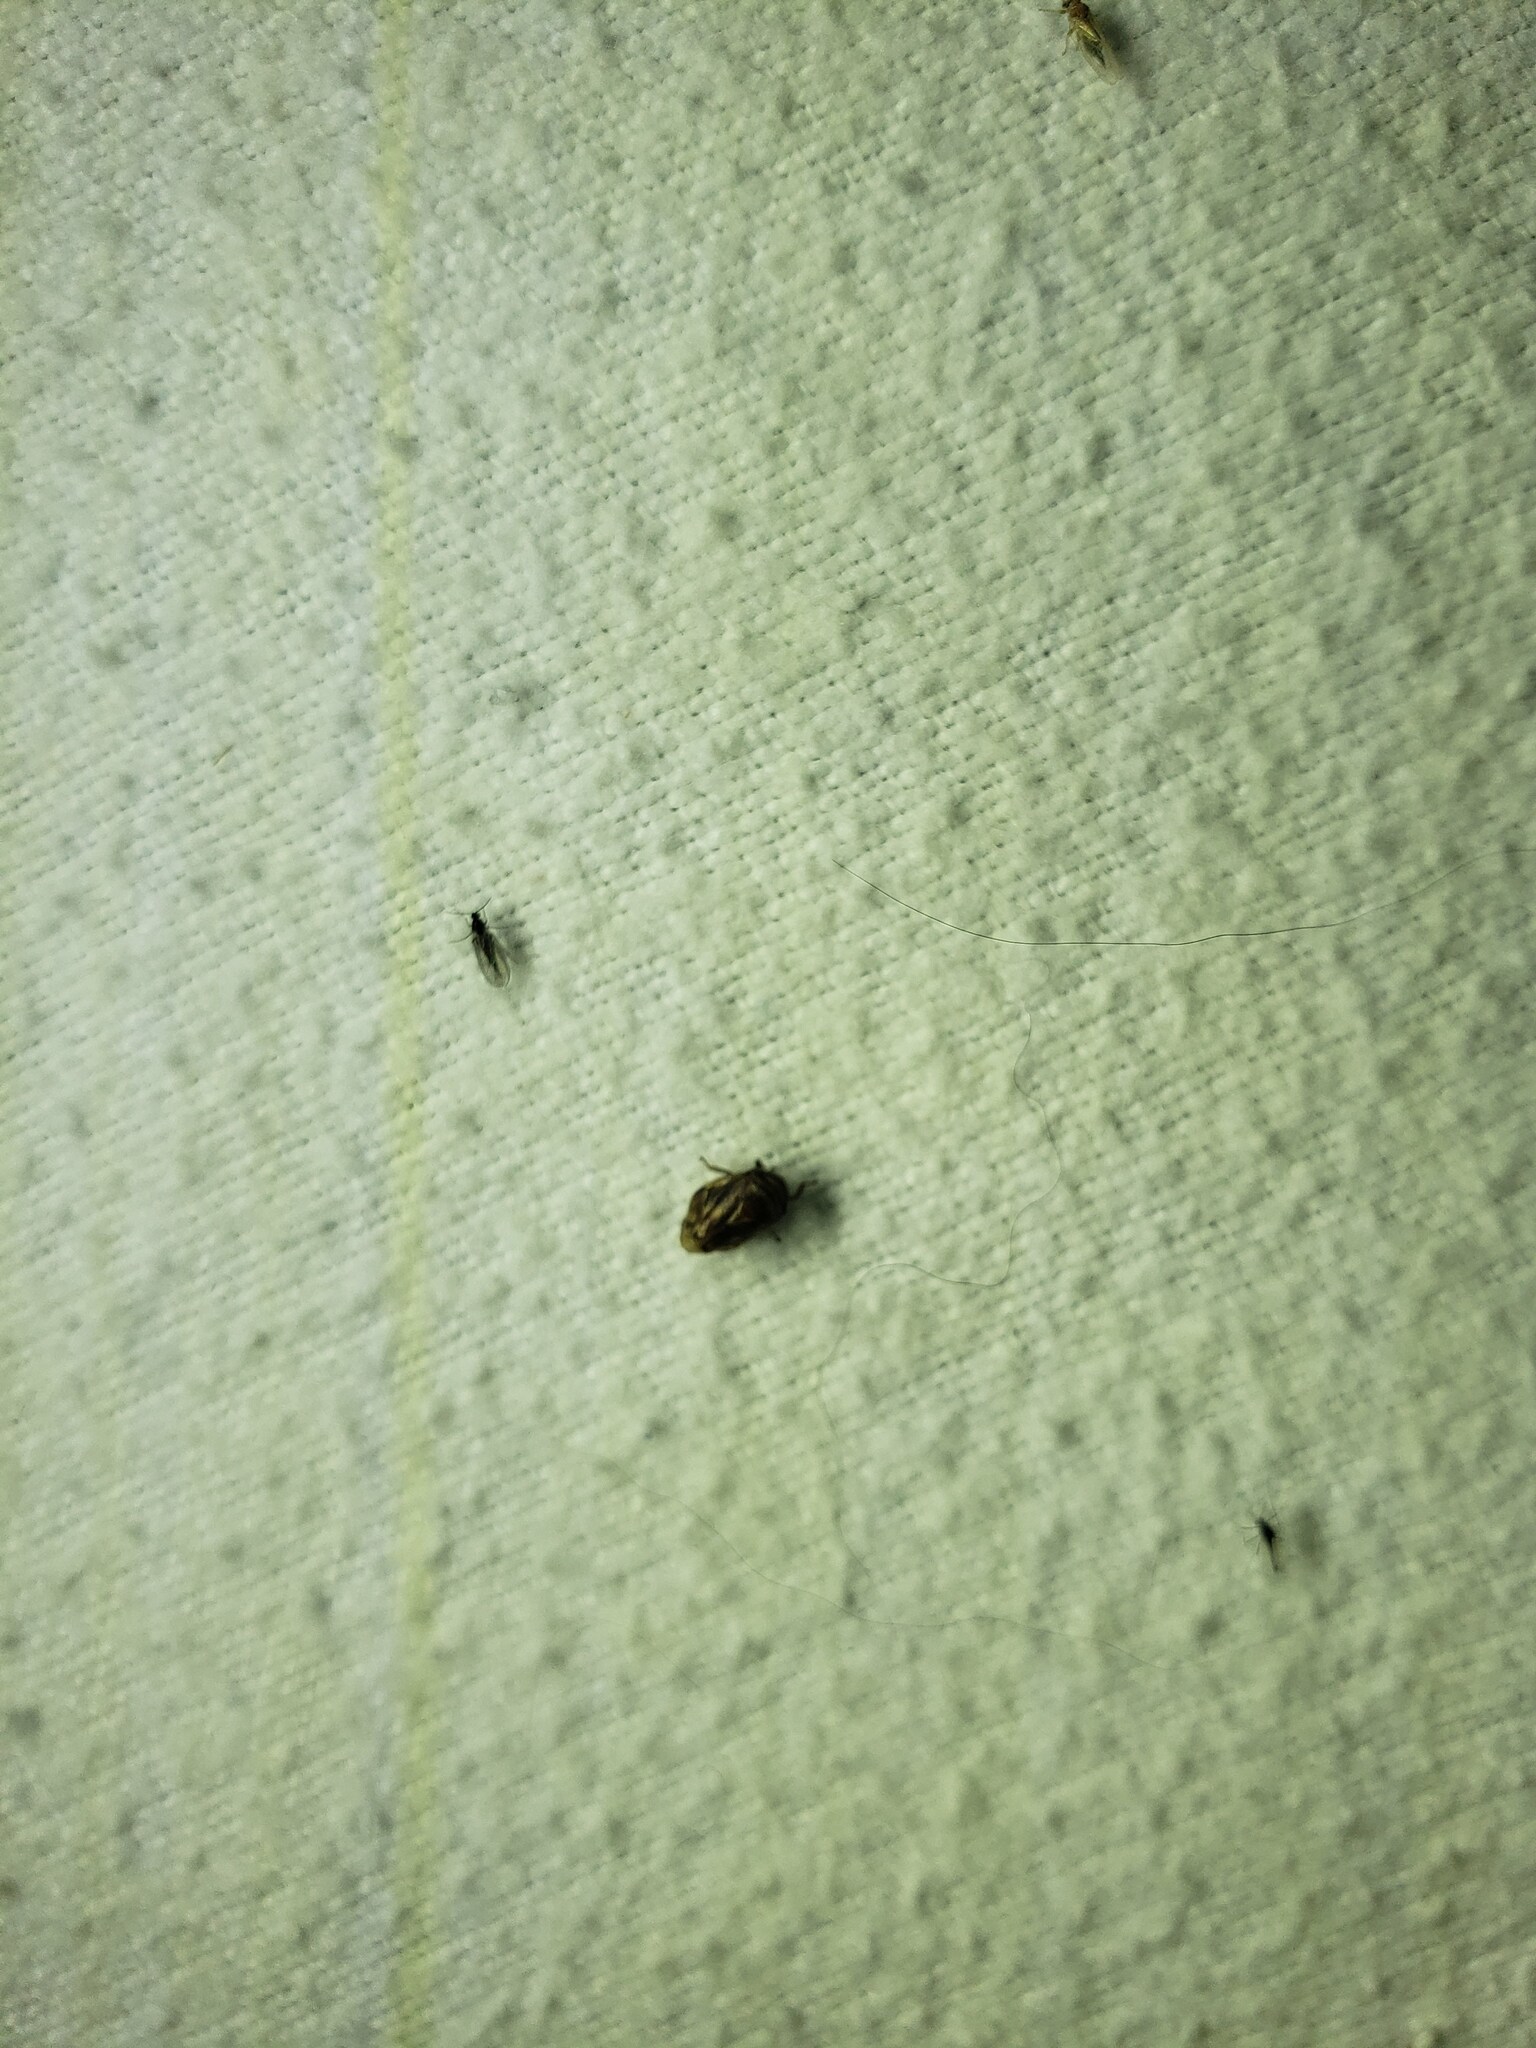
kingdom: Animalia
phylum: Arthropoda
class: Insecta
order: Hemiptera
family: Clastopteridae
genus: Clastoptera
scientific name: Clastoptera obtusa
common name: Alder spittlebug
